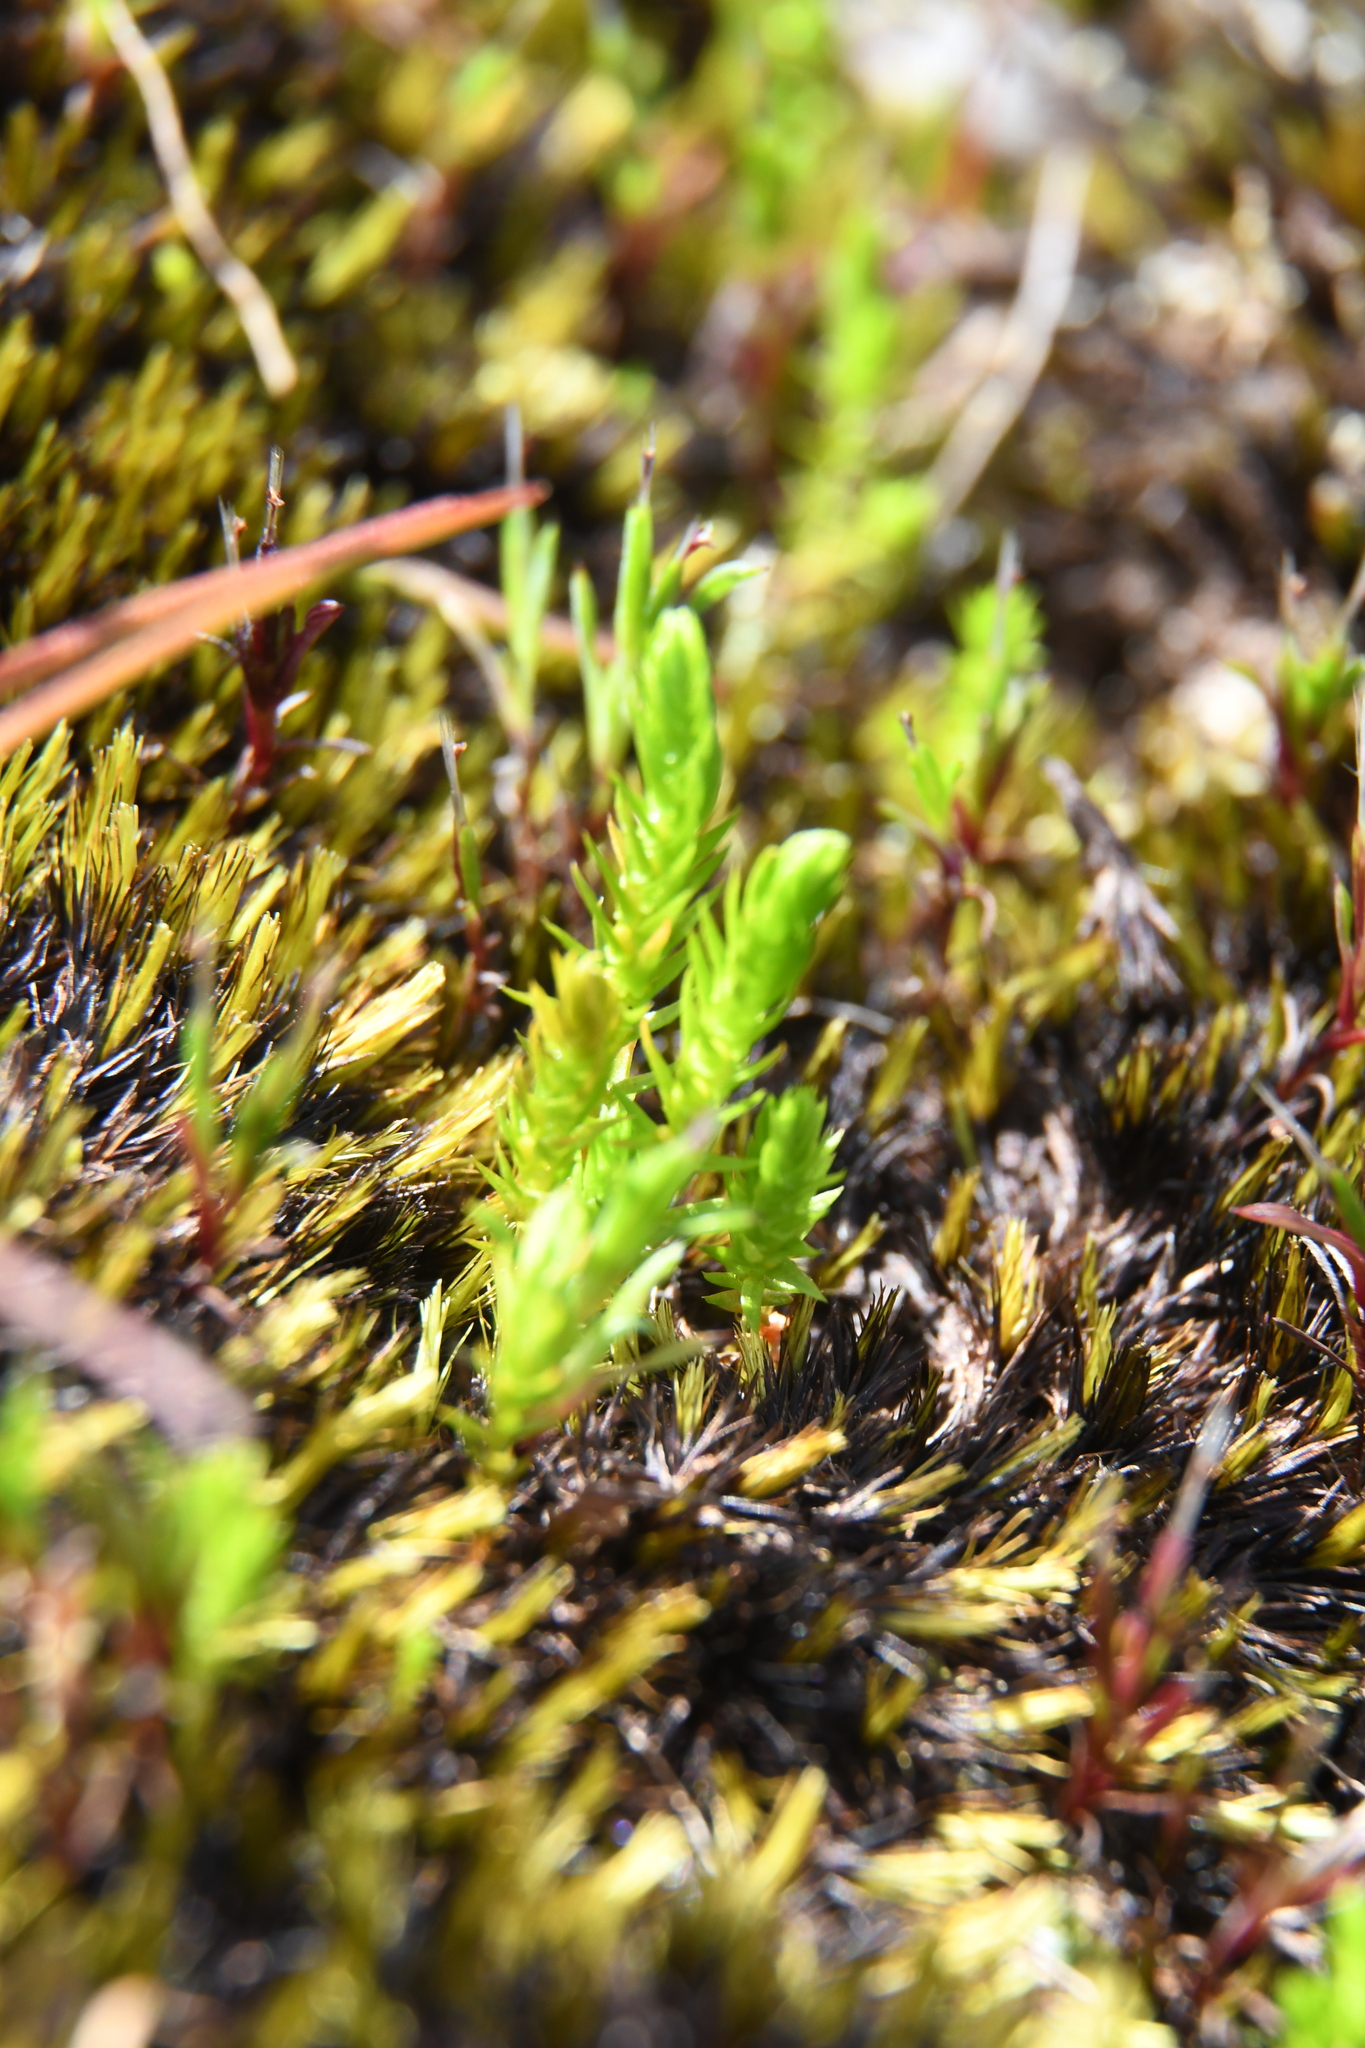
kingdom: Plantae
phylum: Tracheophyta
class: Lycopodiopsida
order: Selaginellales
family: Selaginellaceae
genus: Selaginella
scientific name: Selaginella gracillima
